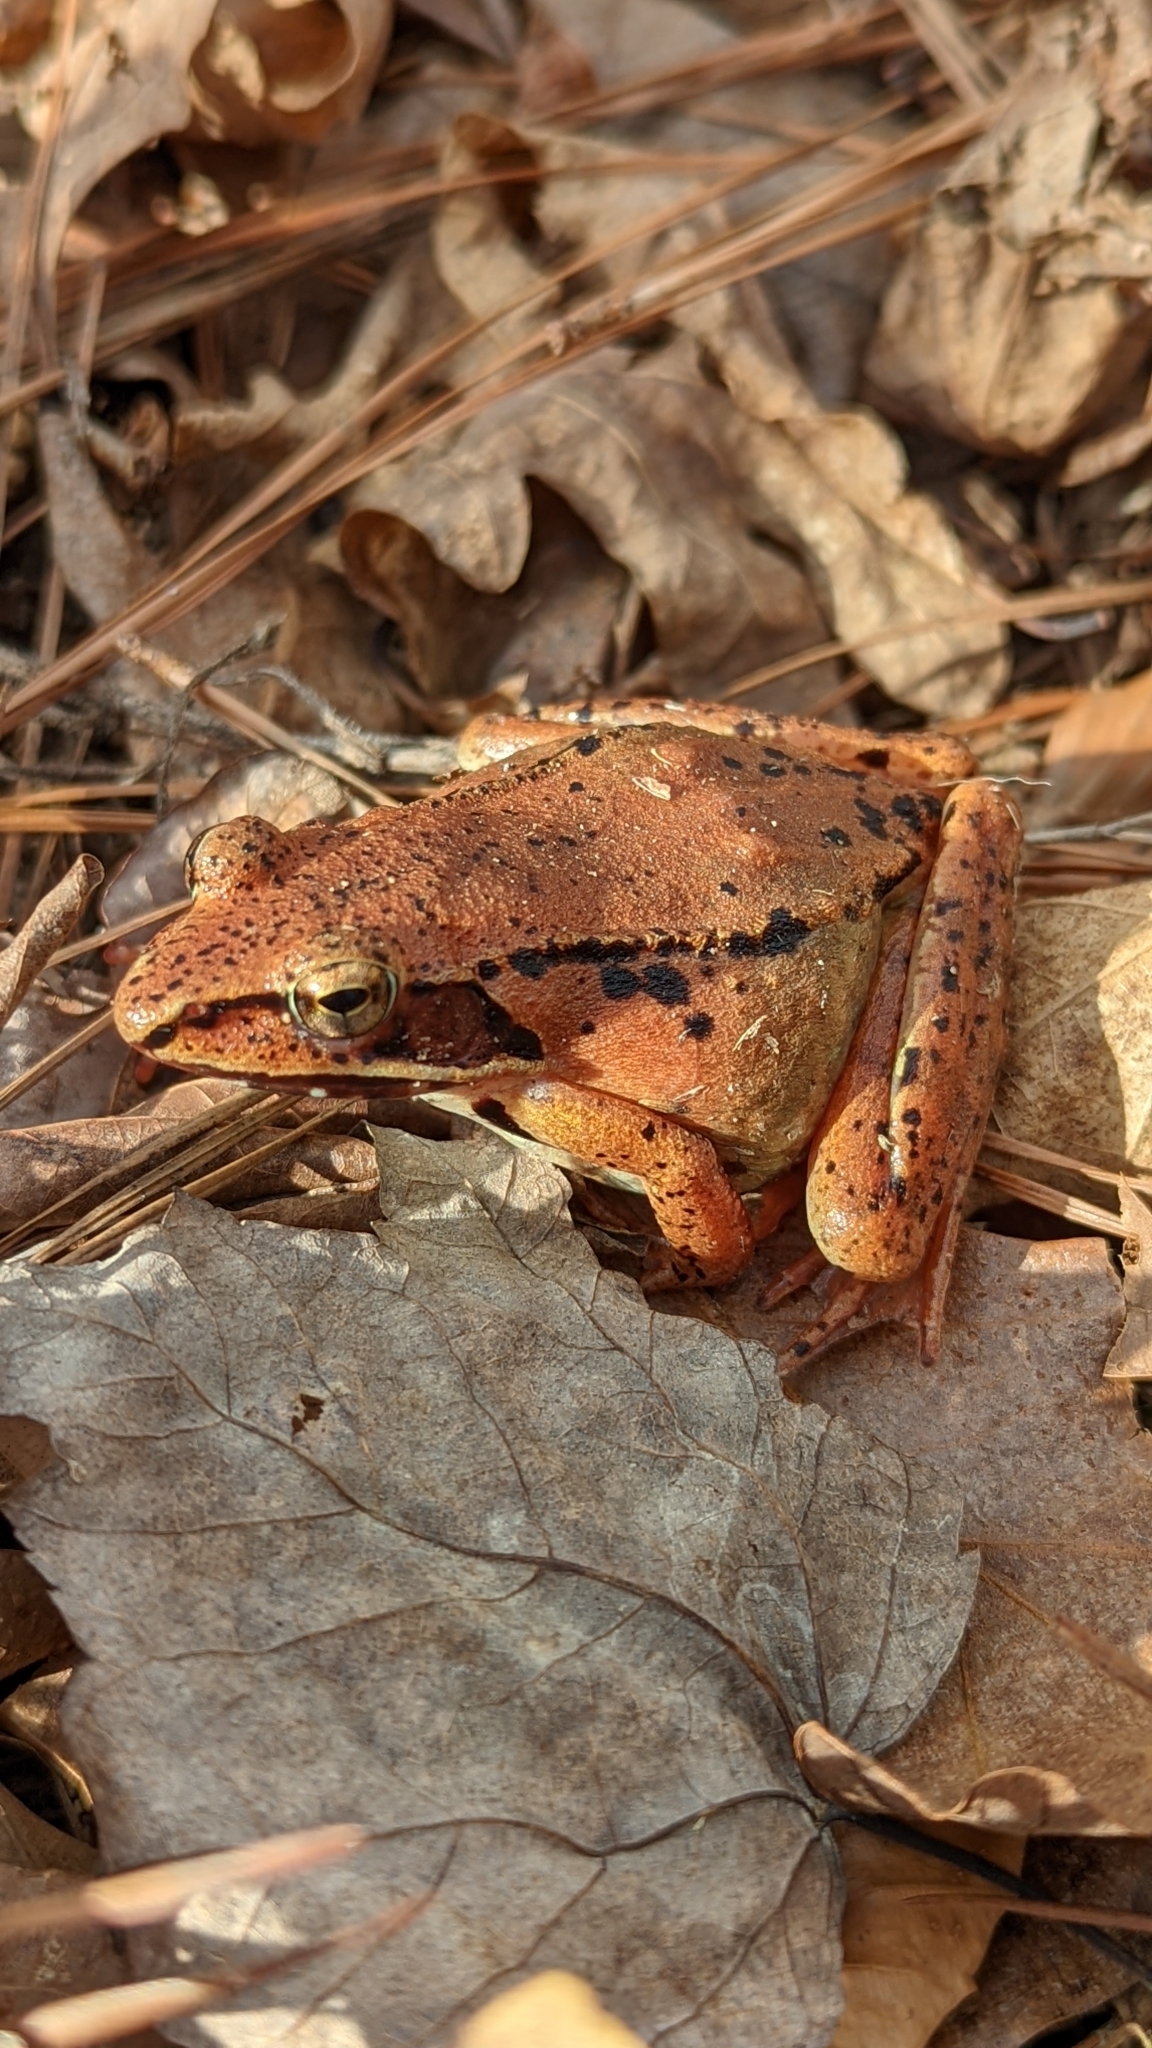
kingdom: Animalia
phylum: Chordata
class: Amphibia
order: Anura
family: Ranidae
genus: Lithobates
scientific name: Lithobates sylvaticus
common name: Wood frog
